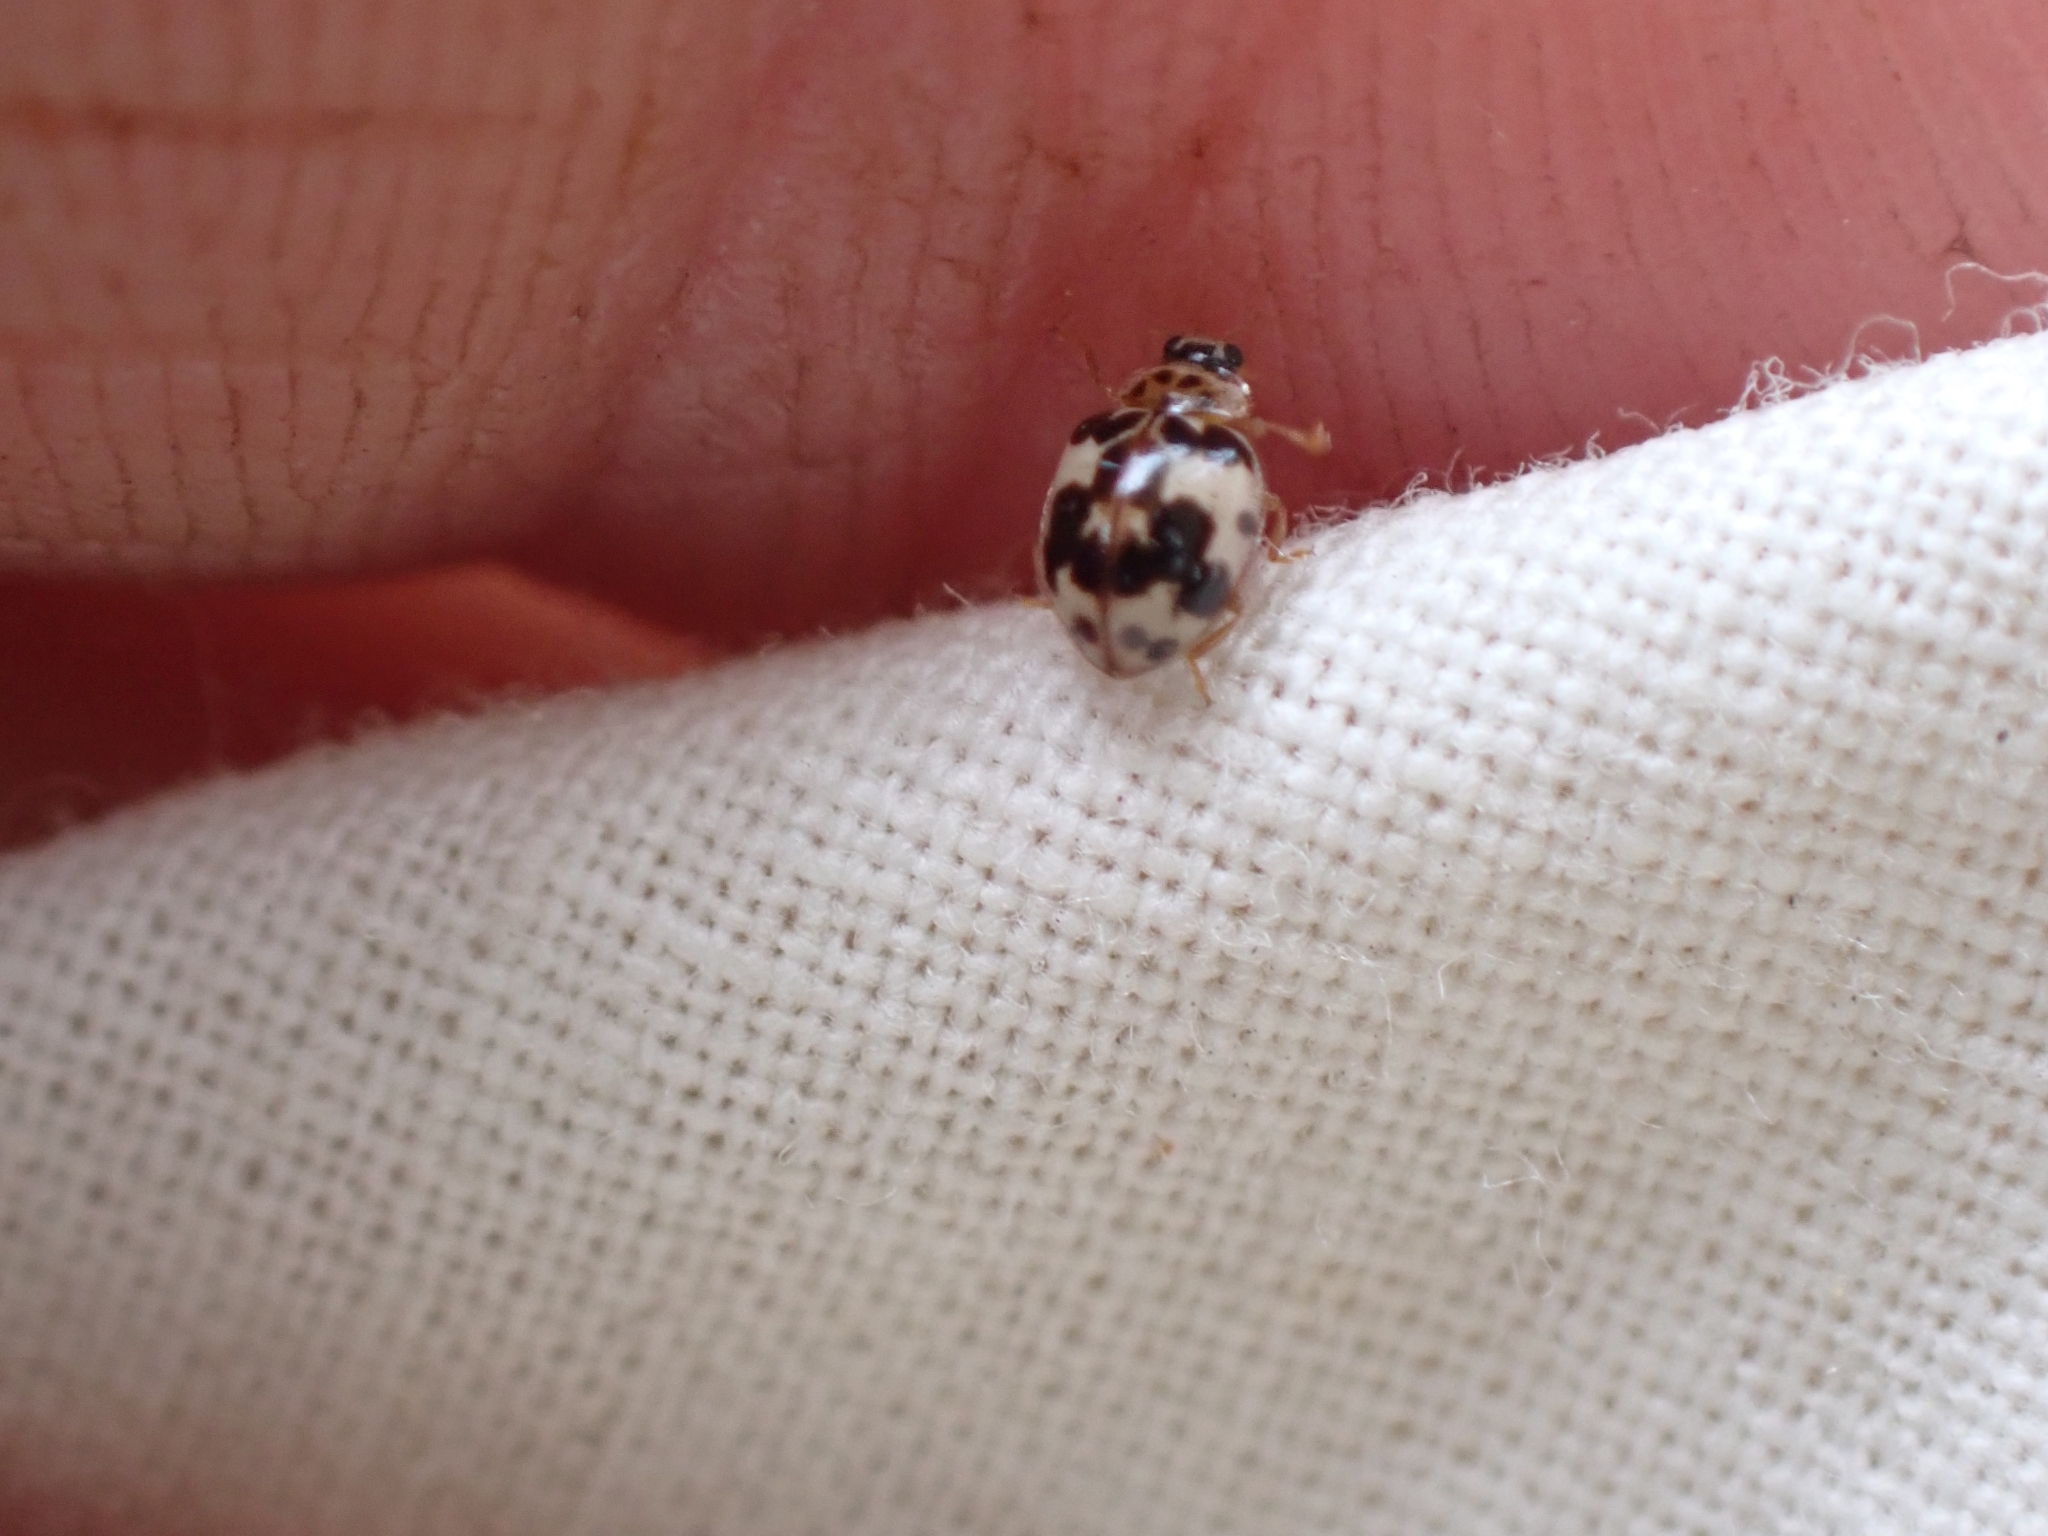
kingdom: Animalia
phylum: Arthropoda
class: Insecta
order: Coleoptera
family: Coccinellidae
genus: Psyllobora
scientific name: Psyllobora borealis
